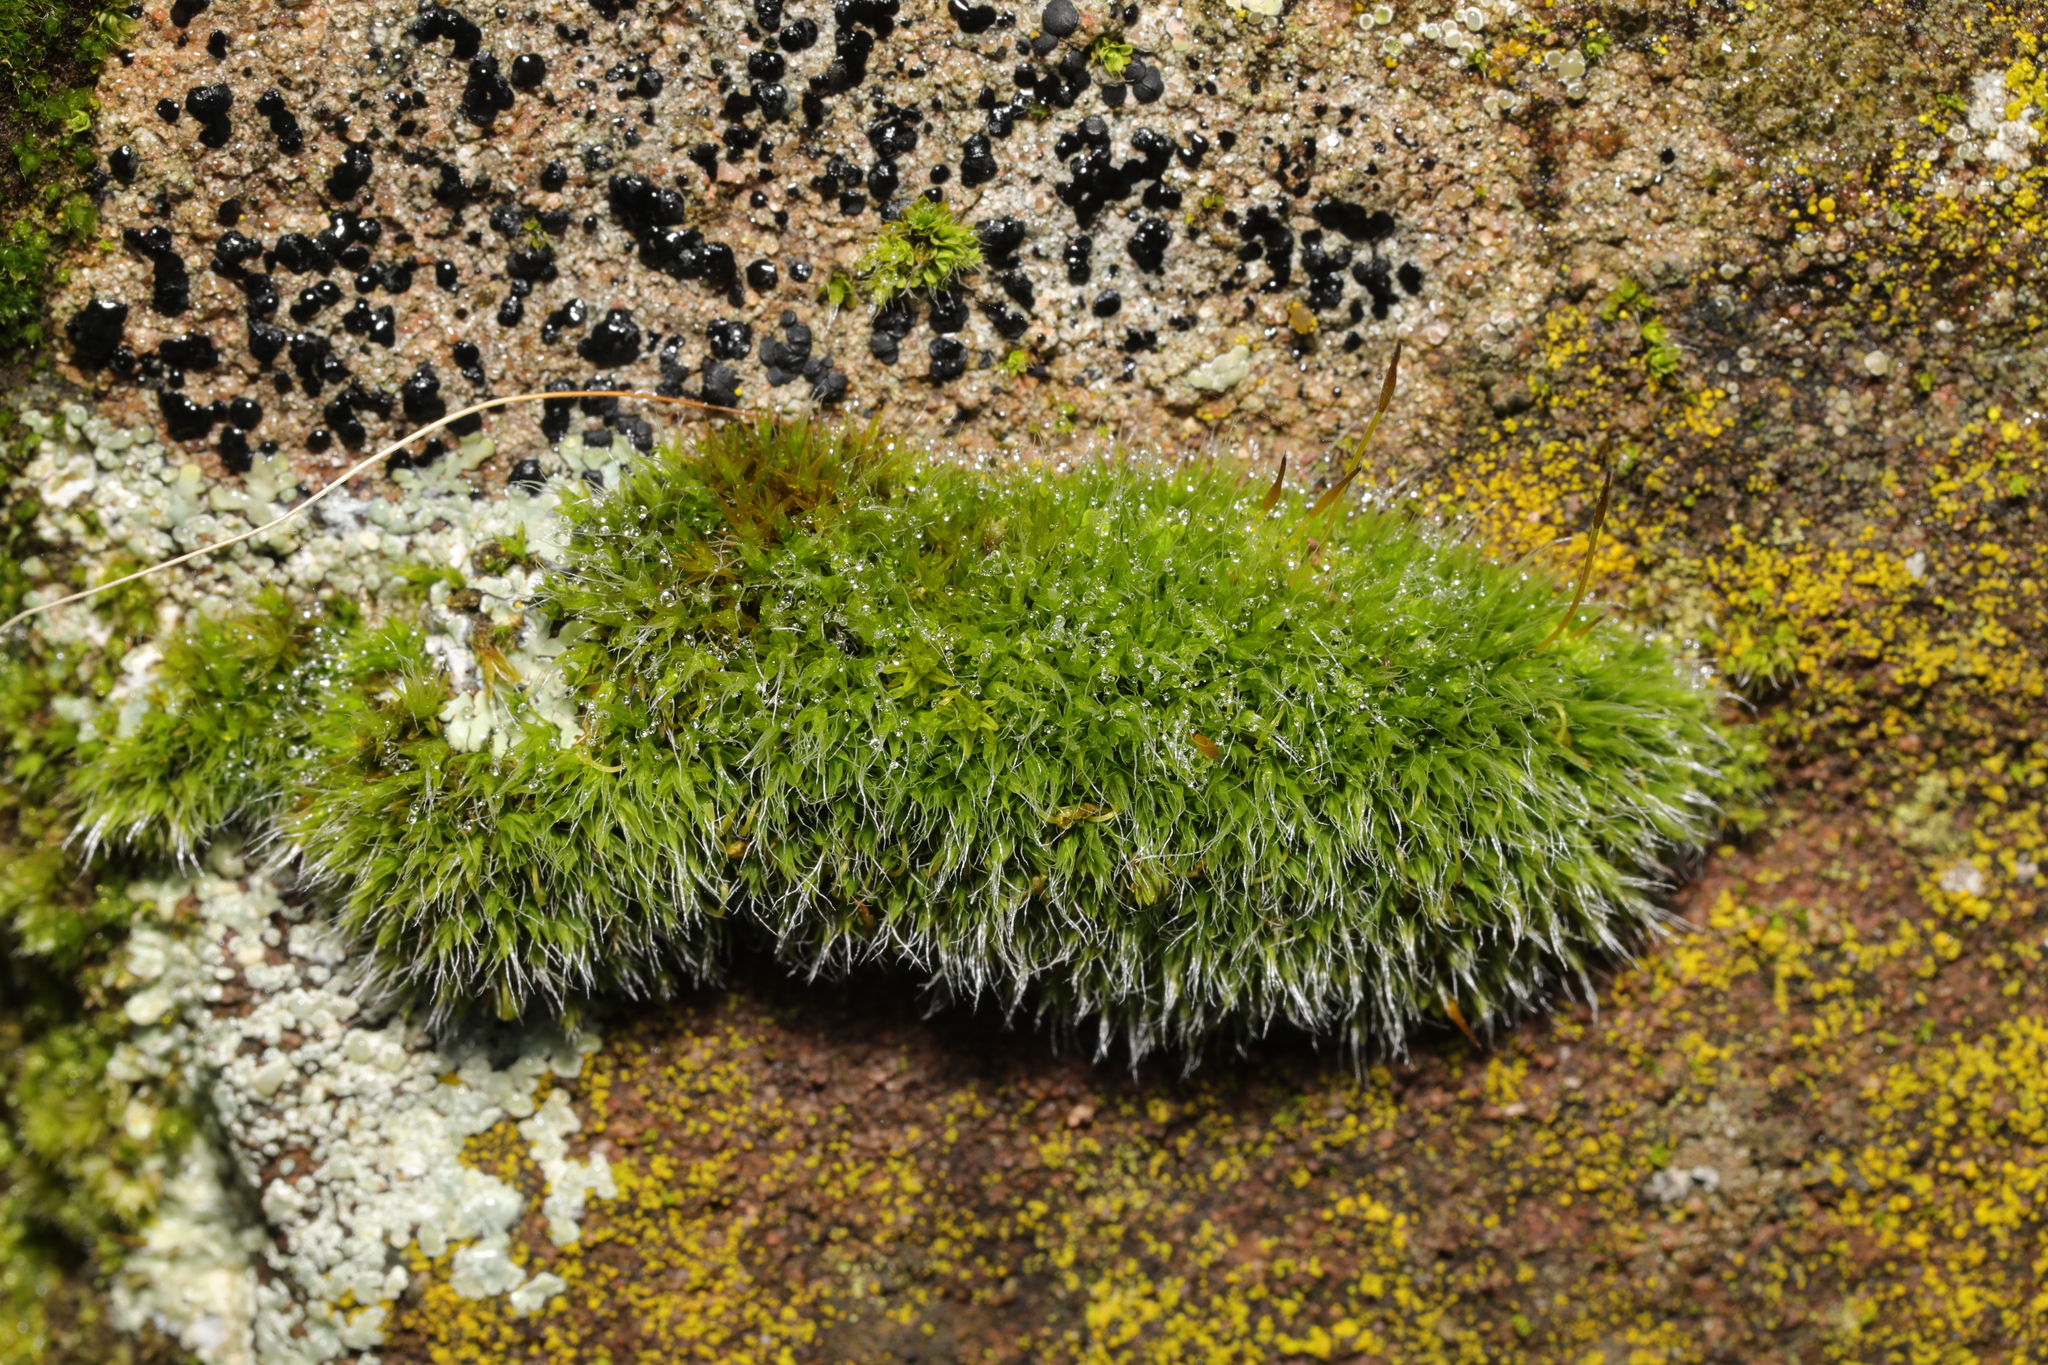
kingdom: Plantae
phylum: Bryophyta
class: Bryopsida
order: Grimmiales
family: Grimmiaceae
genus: Grimmia
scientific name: Grimmia pulvinata
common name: Grey-cushioned grimmia
